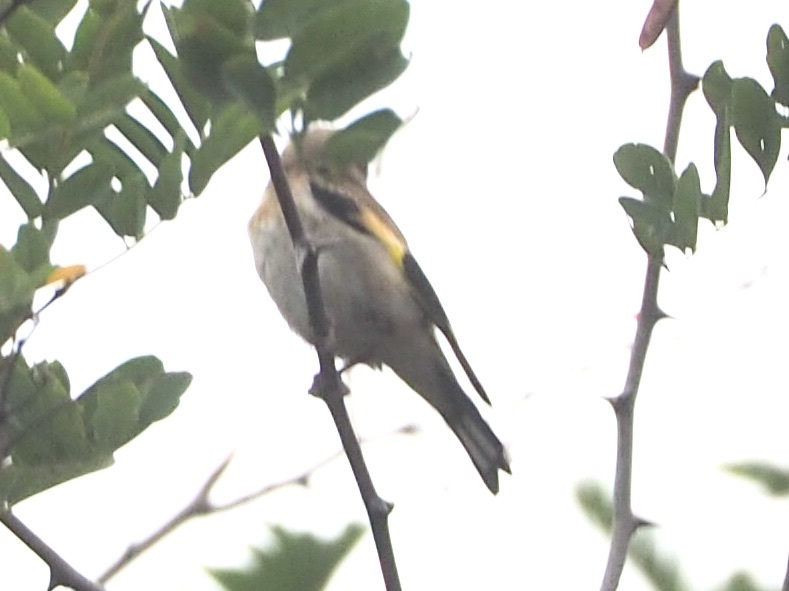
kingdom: Animalia
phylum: Chordata
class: Aves
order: Passeriformes
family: Fringillidae
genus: Carduelis
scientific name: Carduelis carduelis
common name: European goldfinch
